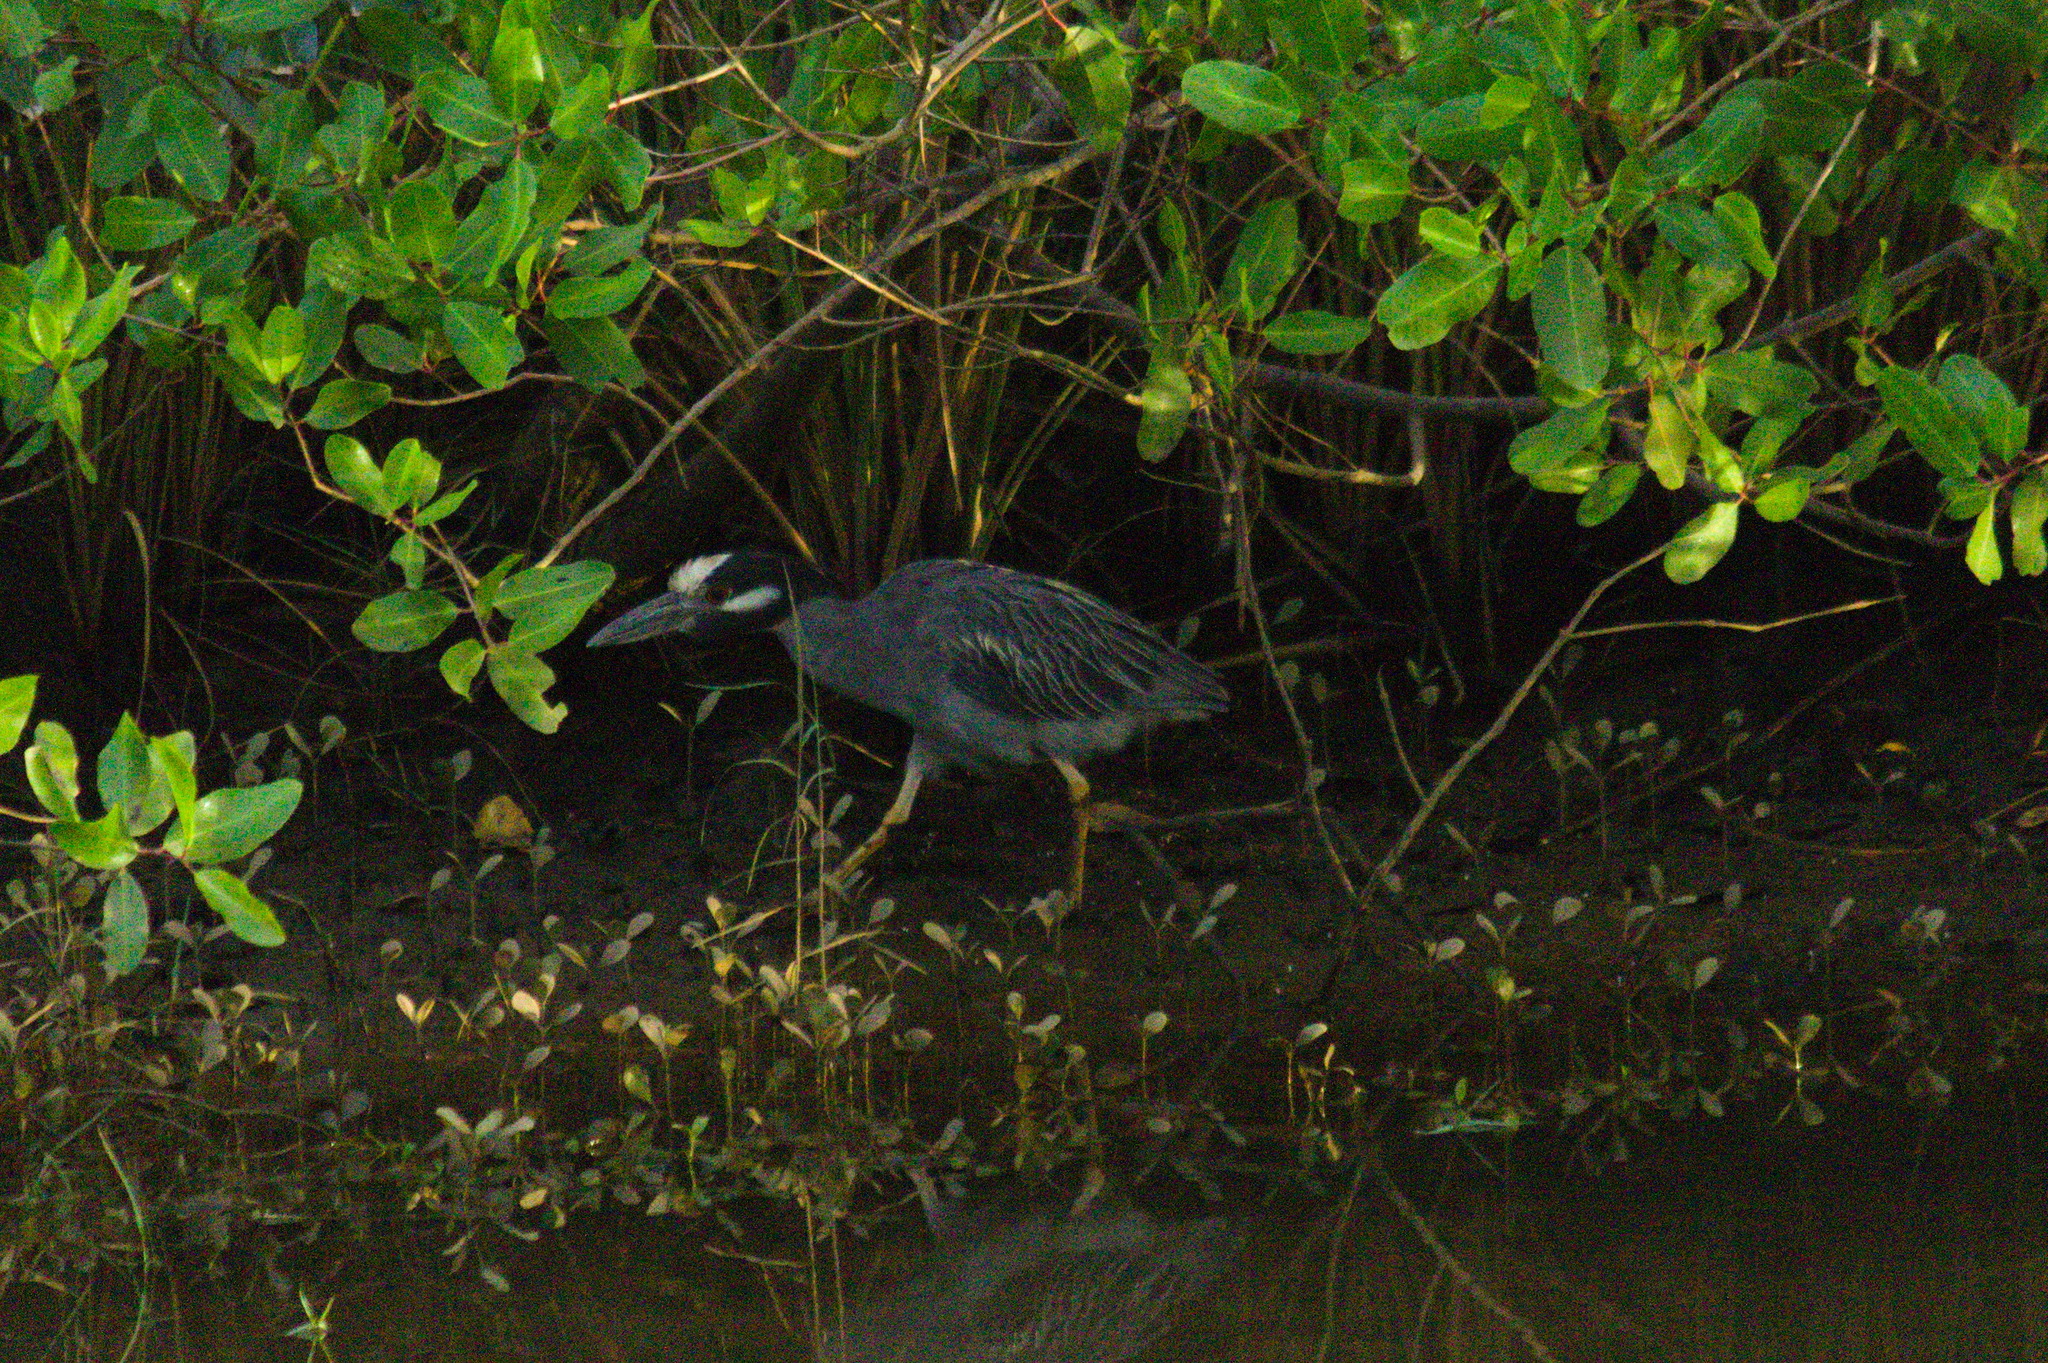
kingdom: Animalia
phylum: Chordata
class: Aves
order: Pelecaniformes
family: Ardeidae
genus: Nyctanassa
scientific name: Nyctanassa violacea
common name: Yellow-crowned night heron
